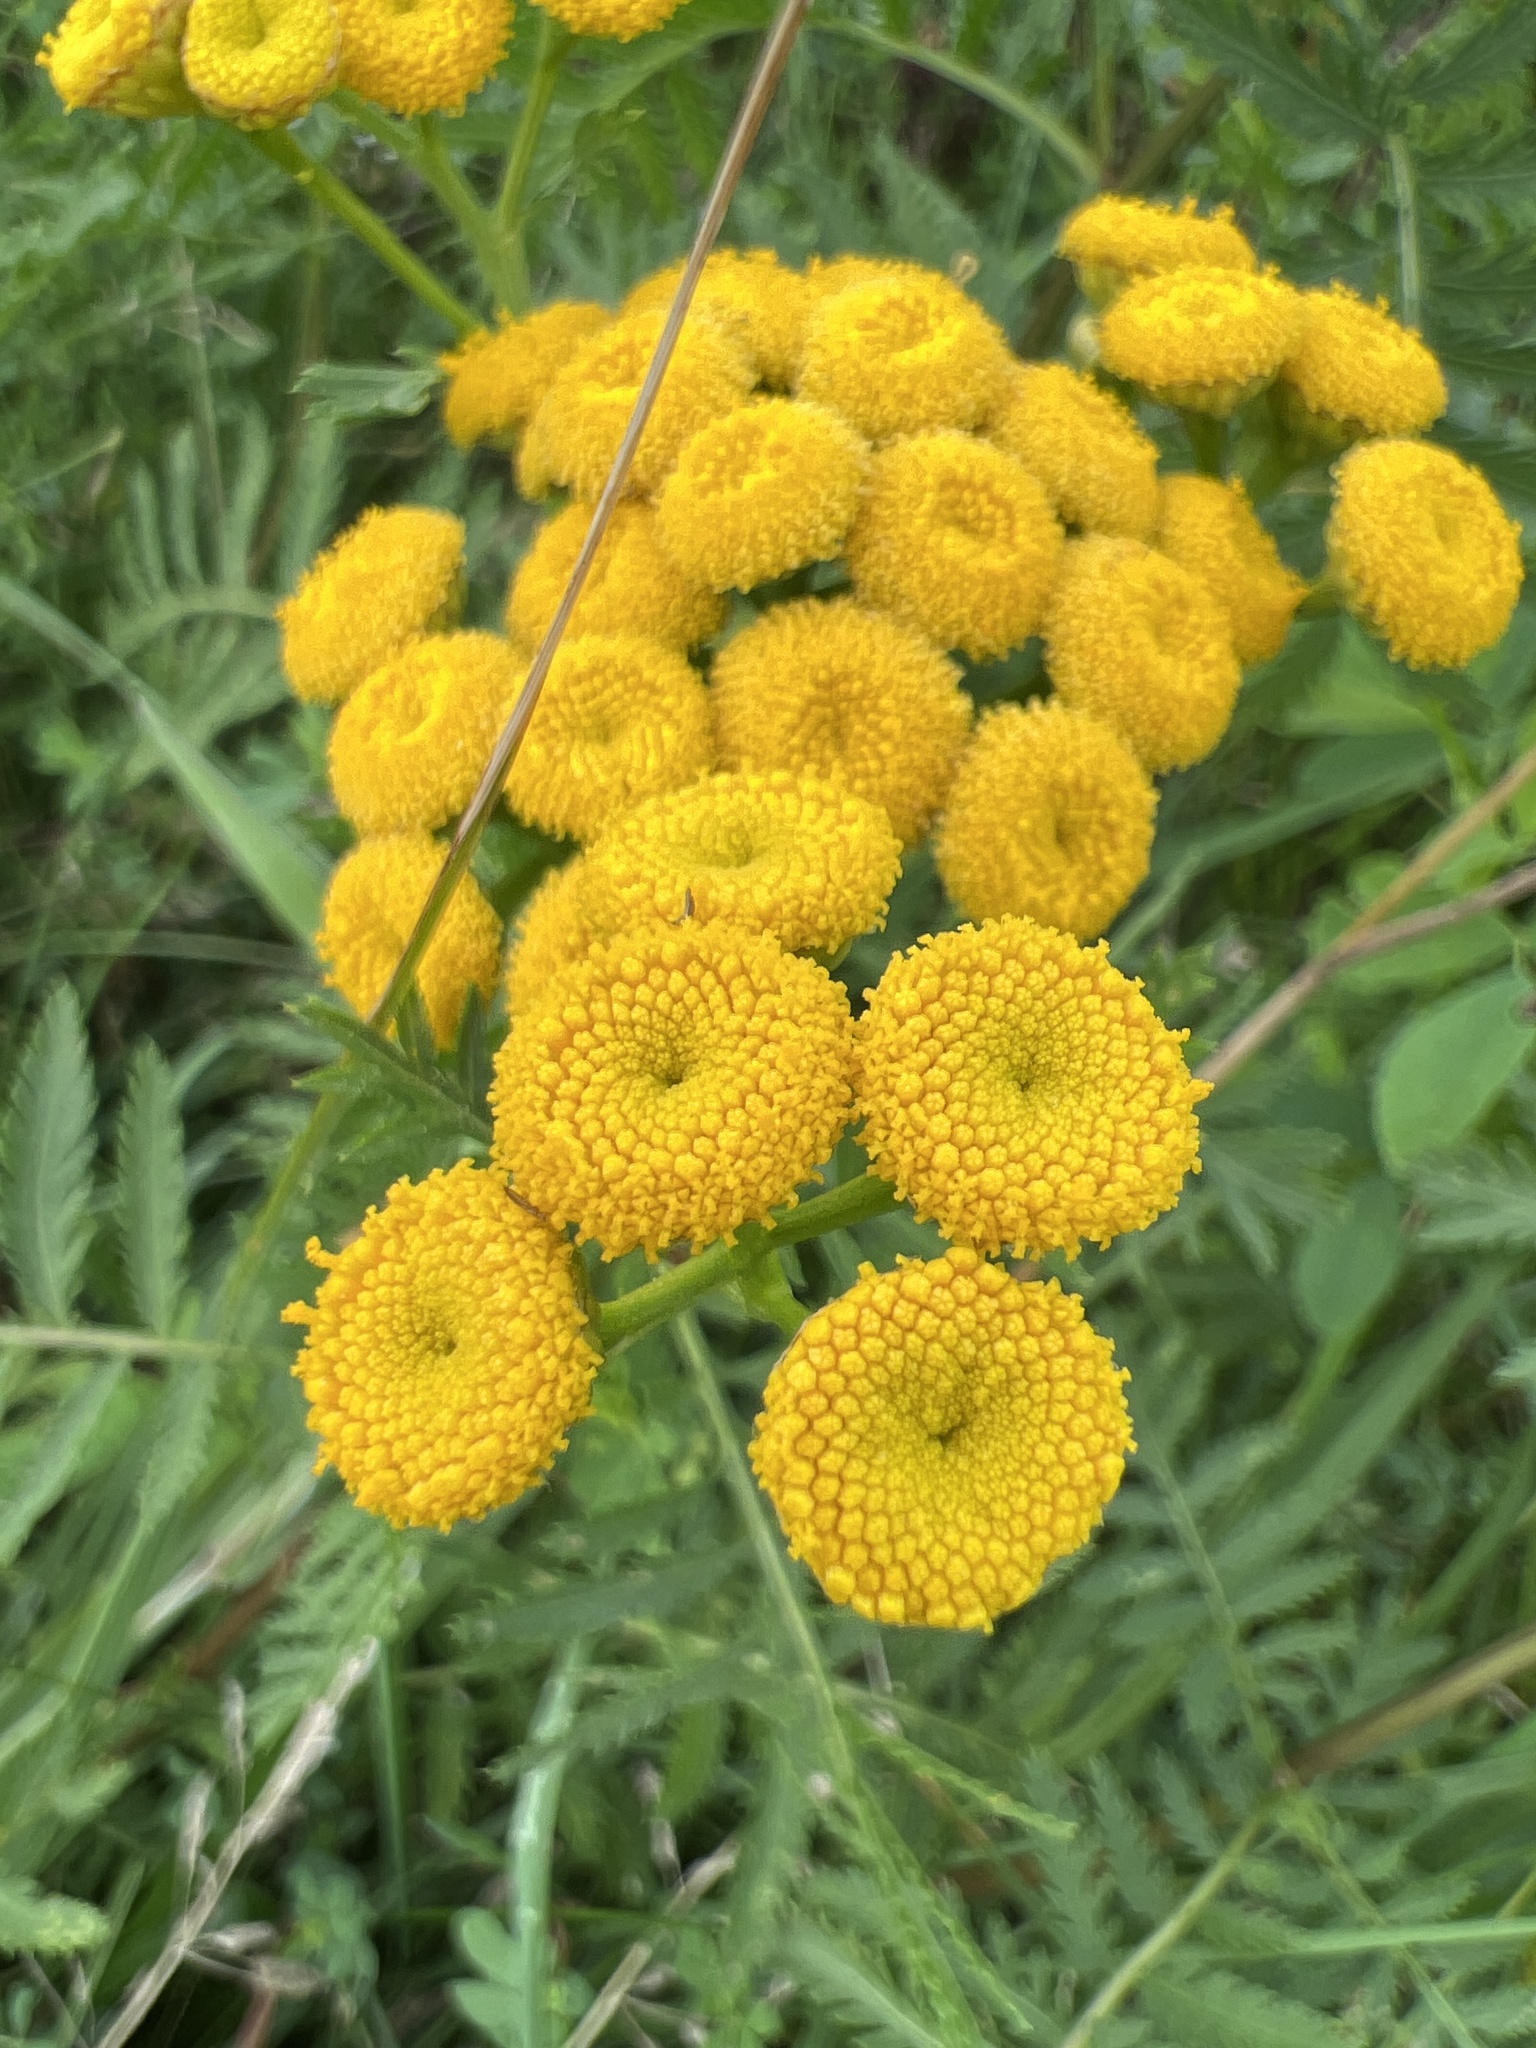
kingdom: Plantae
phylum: Tracheophyta
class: Magnoliopsida
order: Asterales
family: Asteraceae
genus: Tanacetum
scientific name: Tanacetum vulgare
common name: Common tansy
